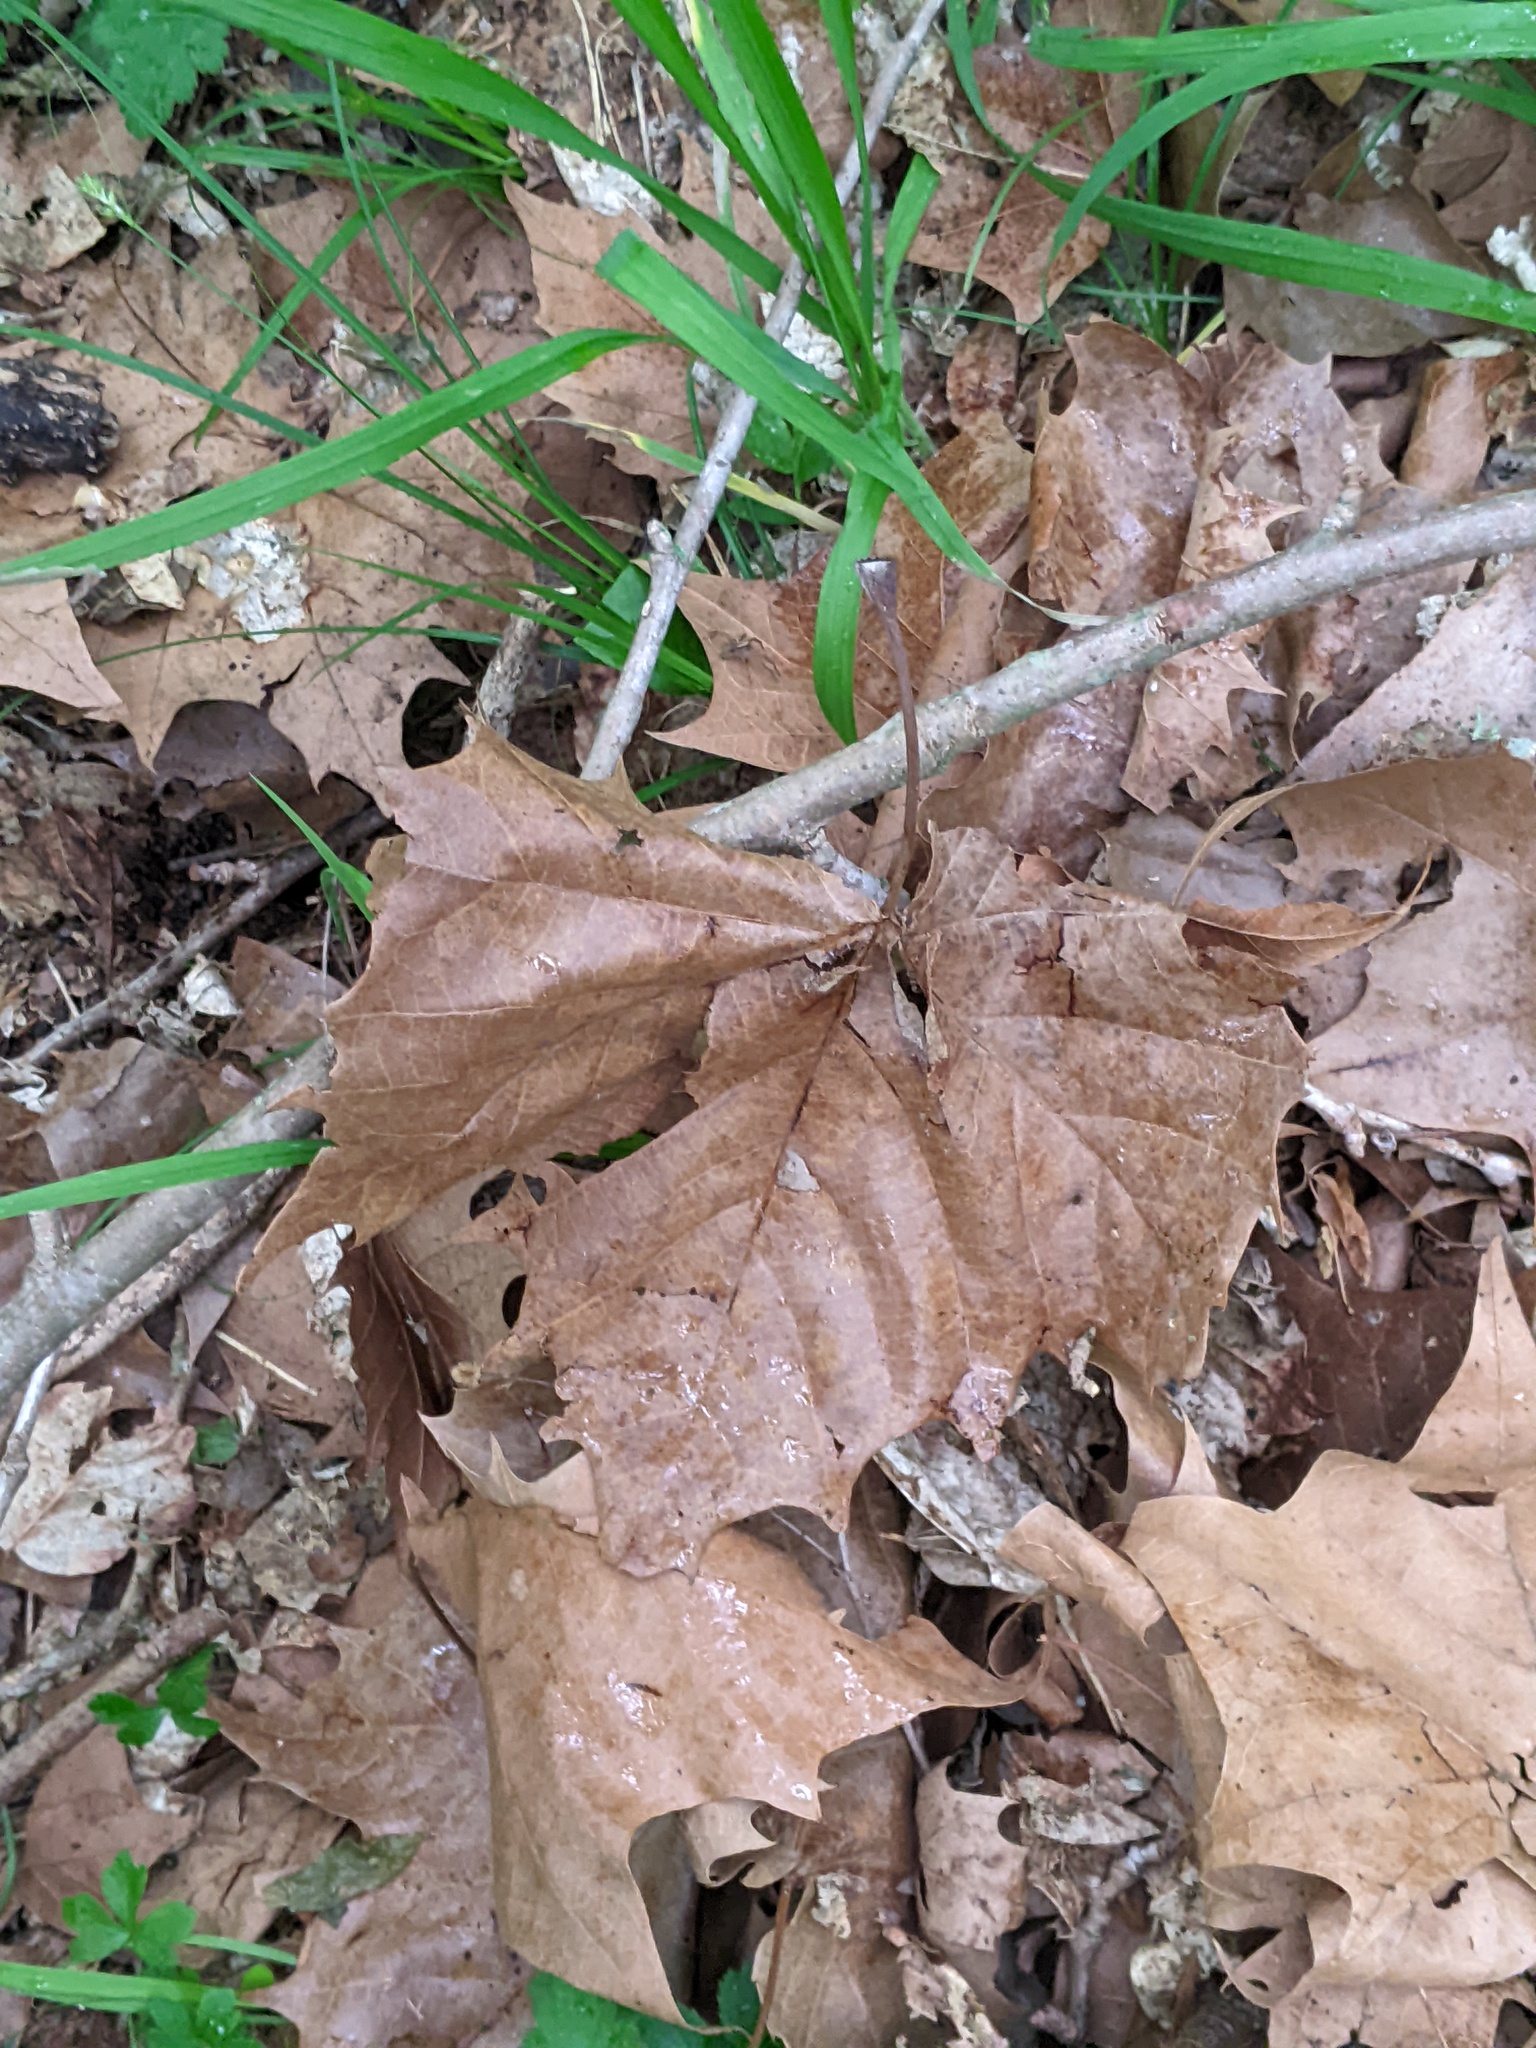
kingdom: Plantae
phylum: Tracheophyta
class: Magnoliopsida
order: Proteales
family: Platanaceae
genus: Platanus
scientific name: Platanus occidentalis
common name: American sycamore
